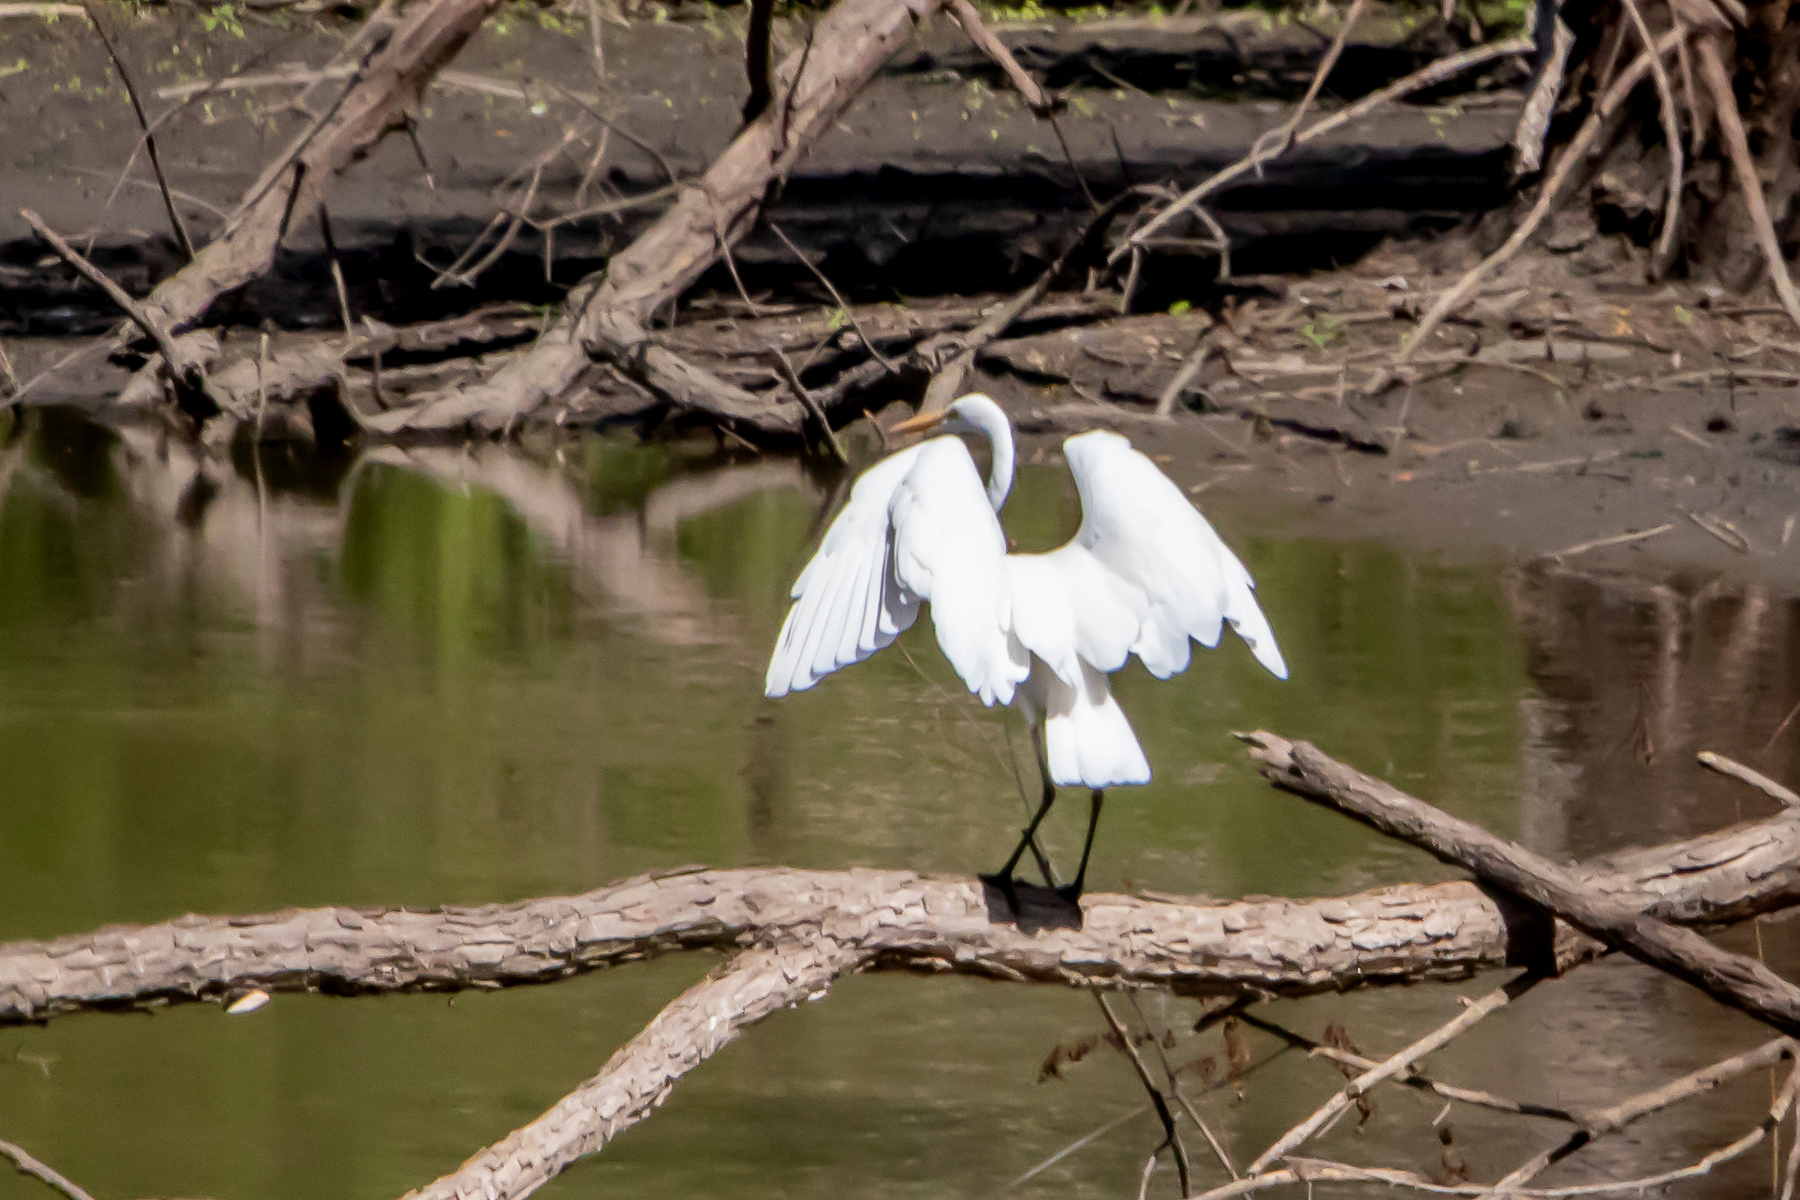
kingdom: Animalia
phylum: Chordata
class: Aves
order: Pelecaniformes
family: Ardeidae
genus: Ardea
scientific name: Ardea alba
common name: Great egret
